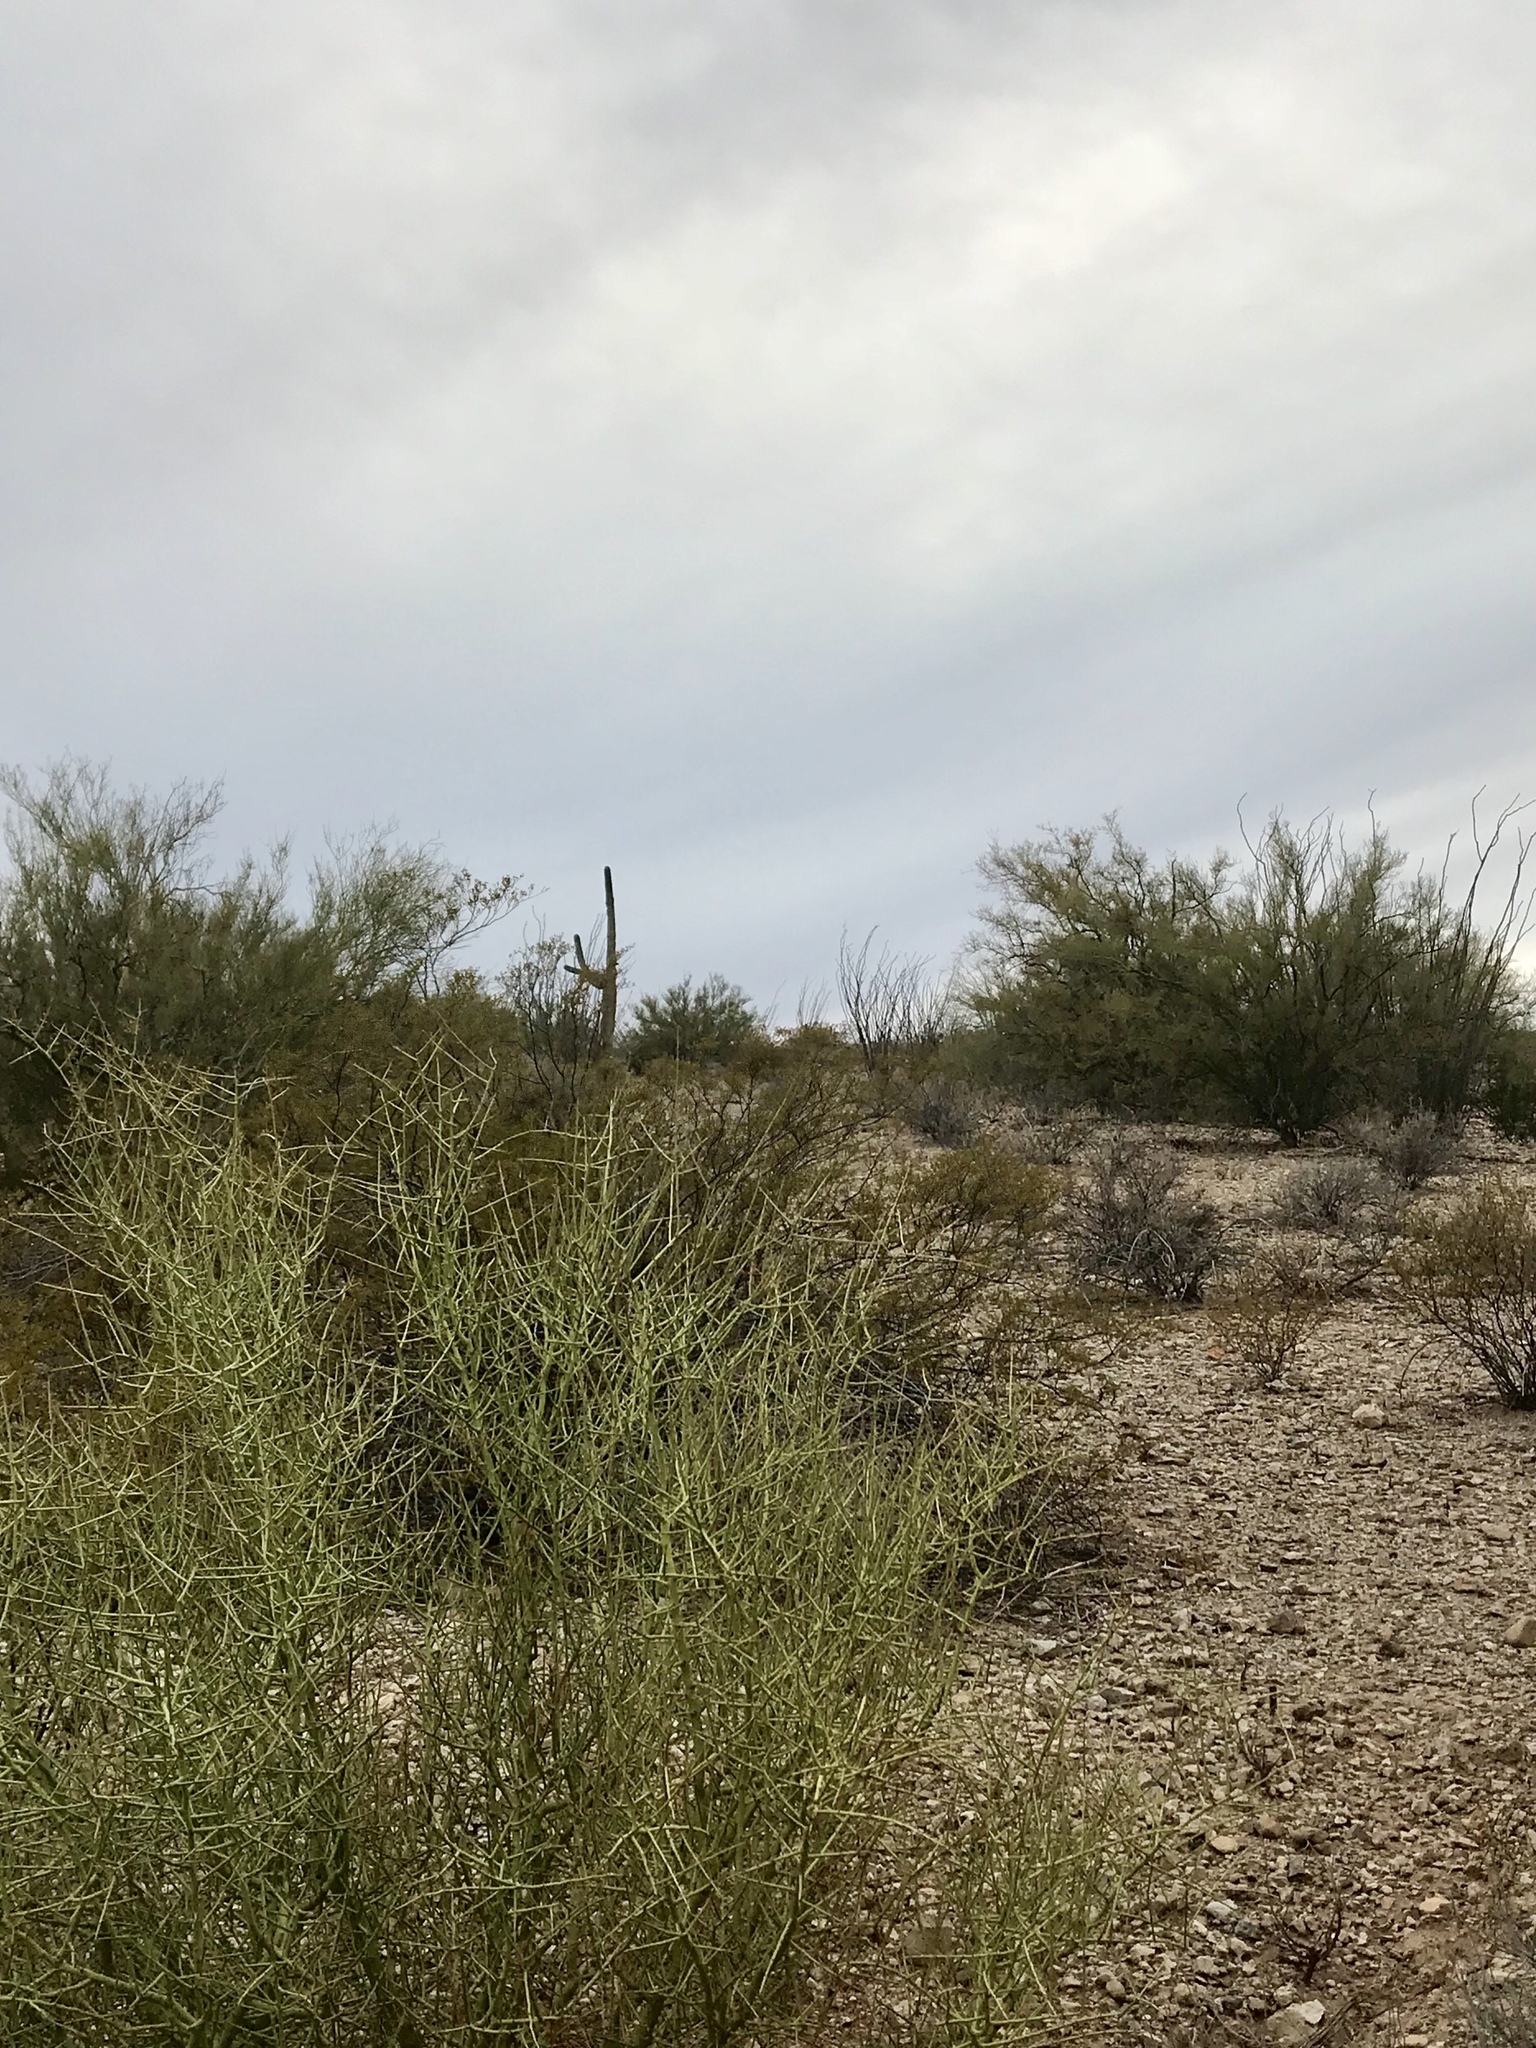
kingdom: Plantae
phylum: Tracheophyta
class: Magnoliopsida
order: Fabales
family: Fabaceae
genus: Parkinsonia
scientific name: Parkinsonia florida
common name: Blue paloverde
